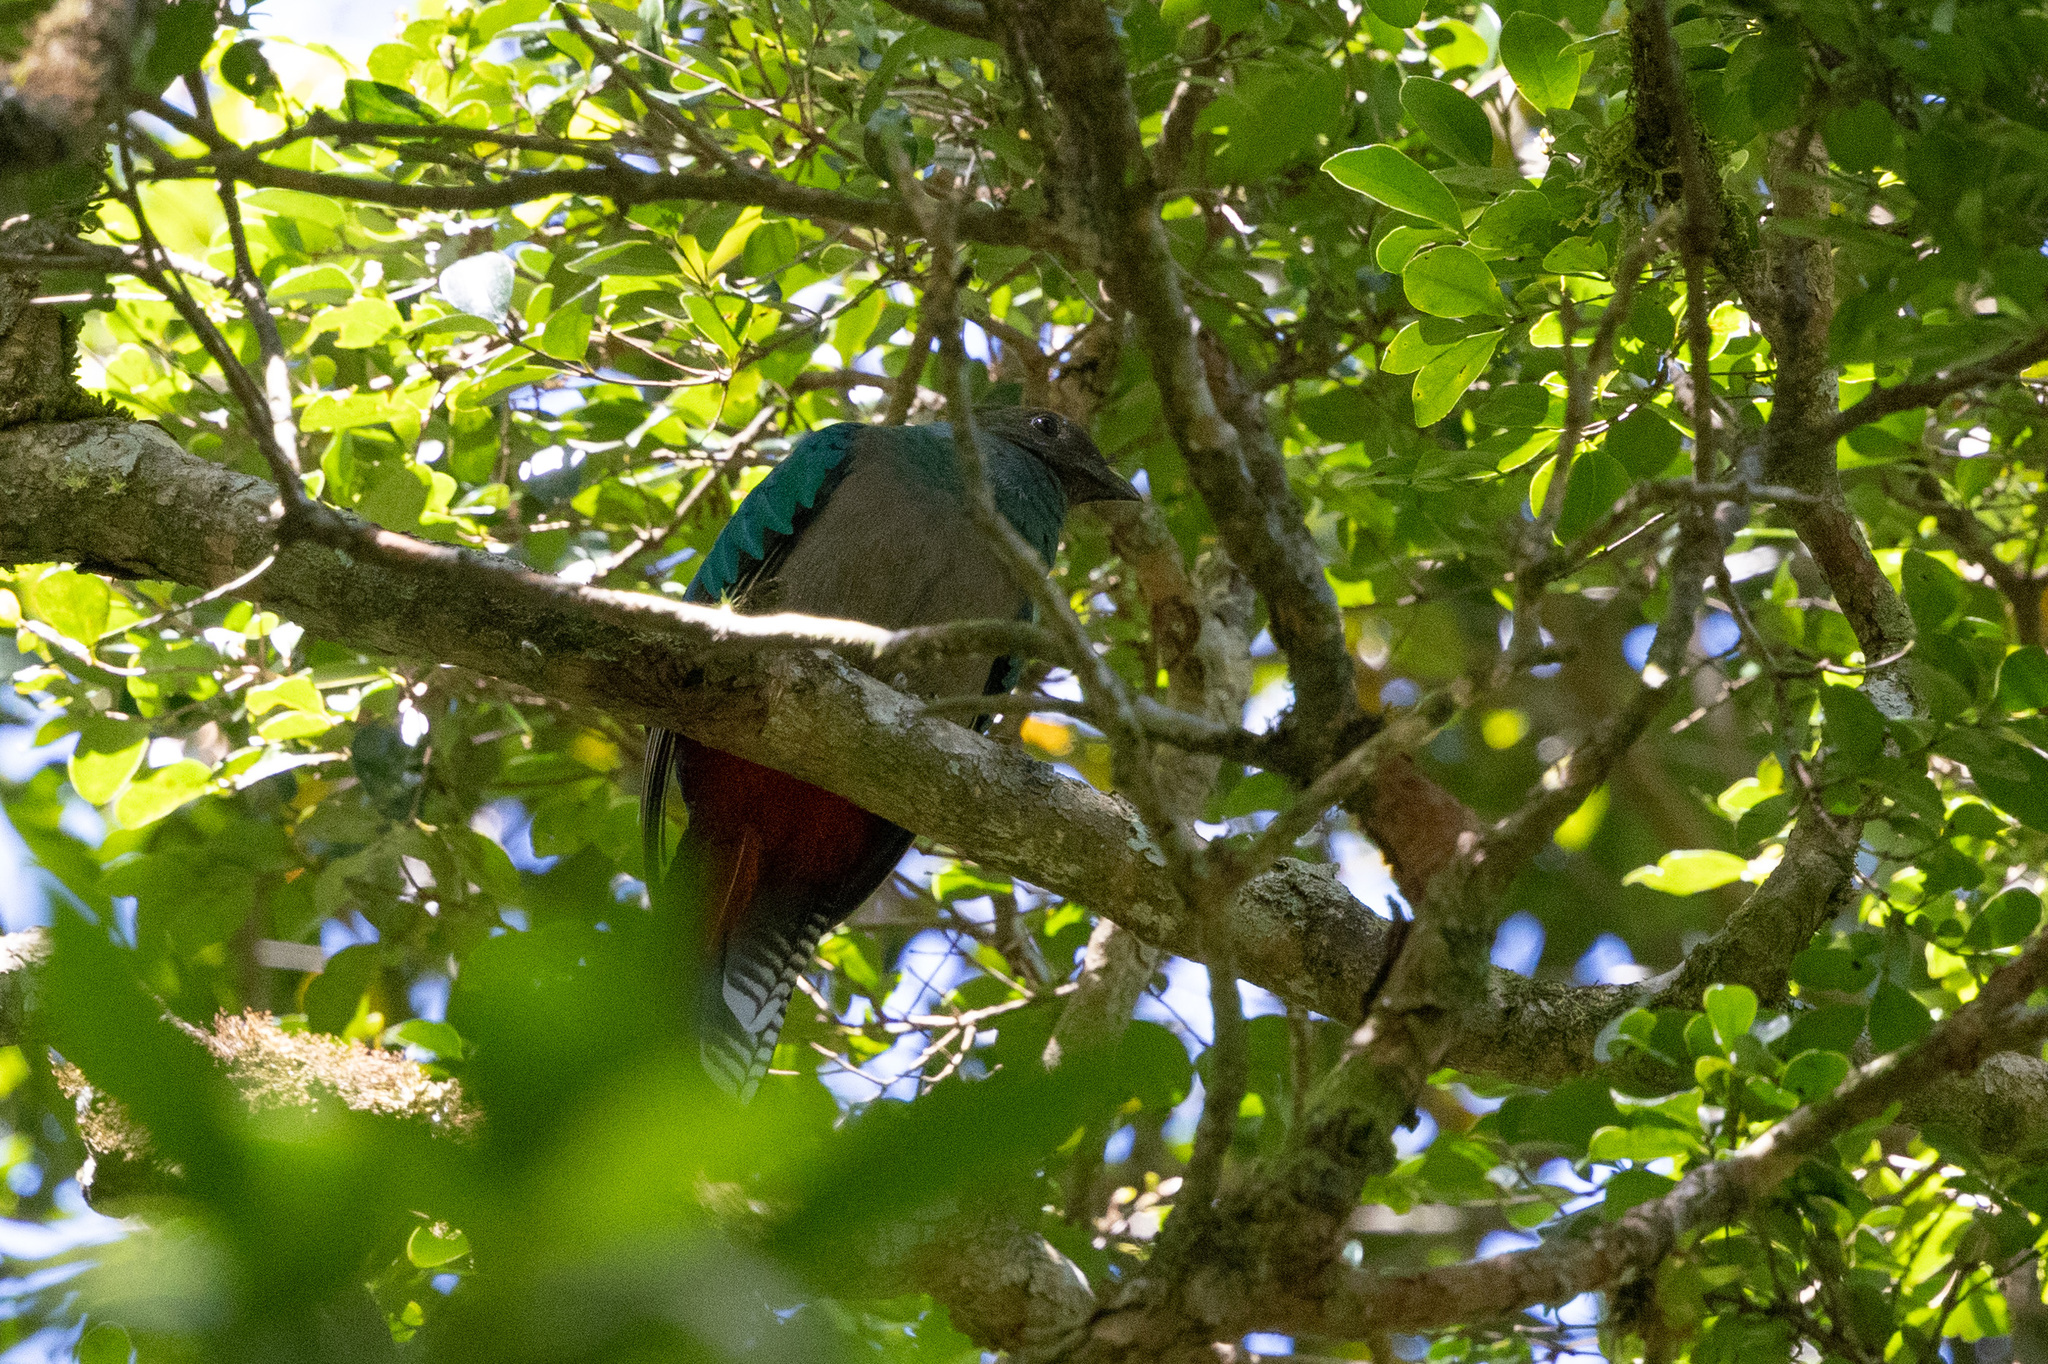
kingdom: Animalia
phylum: Chordata
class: Aves
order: Trogoniformes
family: Trogonidae
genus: Pharomachrus
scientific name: Pharomachrus mocinno
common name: Resplendent quetzal
